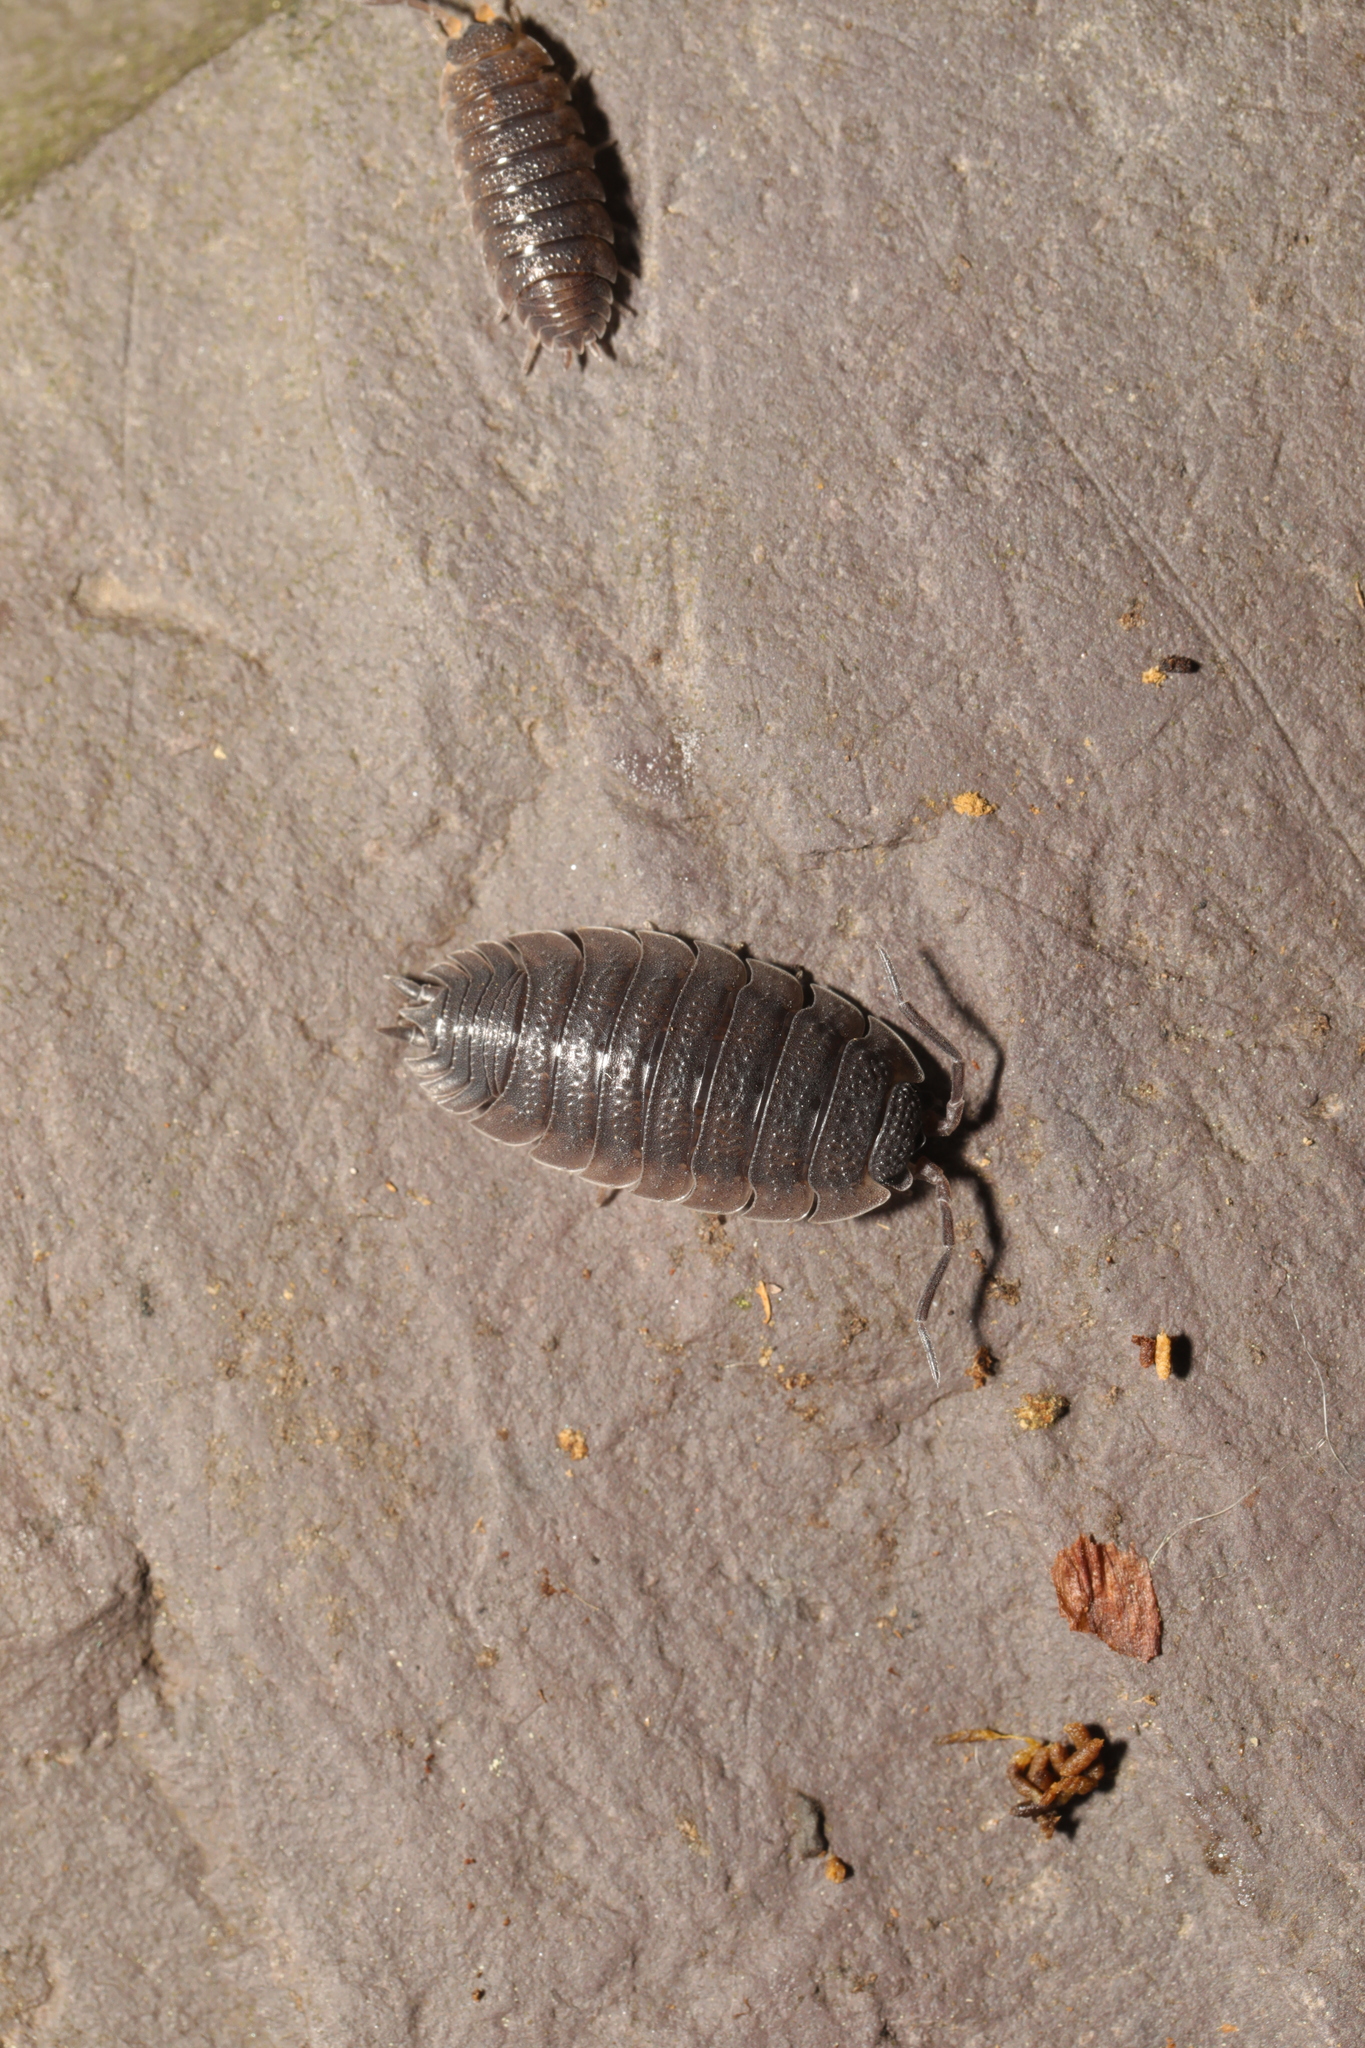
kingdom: Animalia
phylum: Arthropoda
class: Malacostraca
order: Isopoda
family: Porcellionidae
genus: Porcellio
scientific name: Porcellio scaber
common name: Common rough woodlouse
